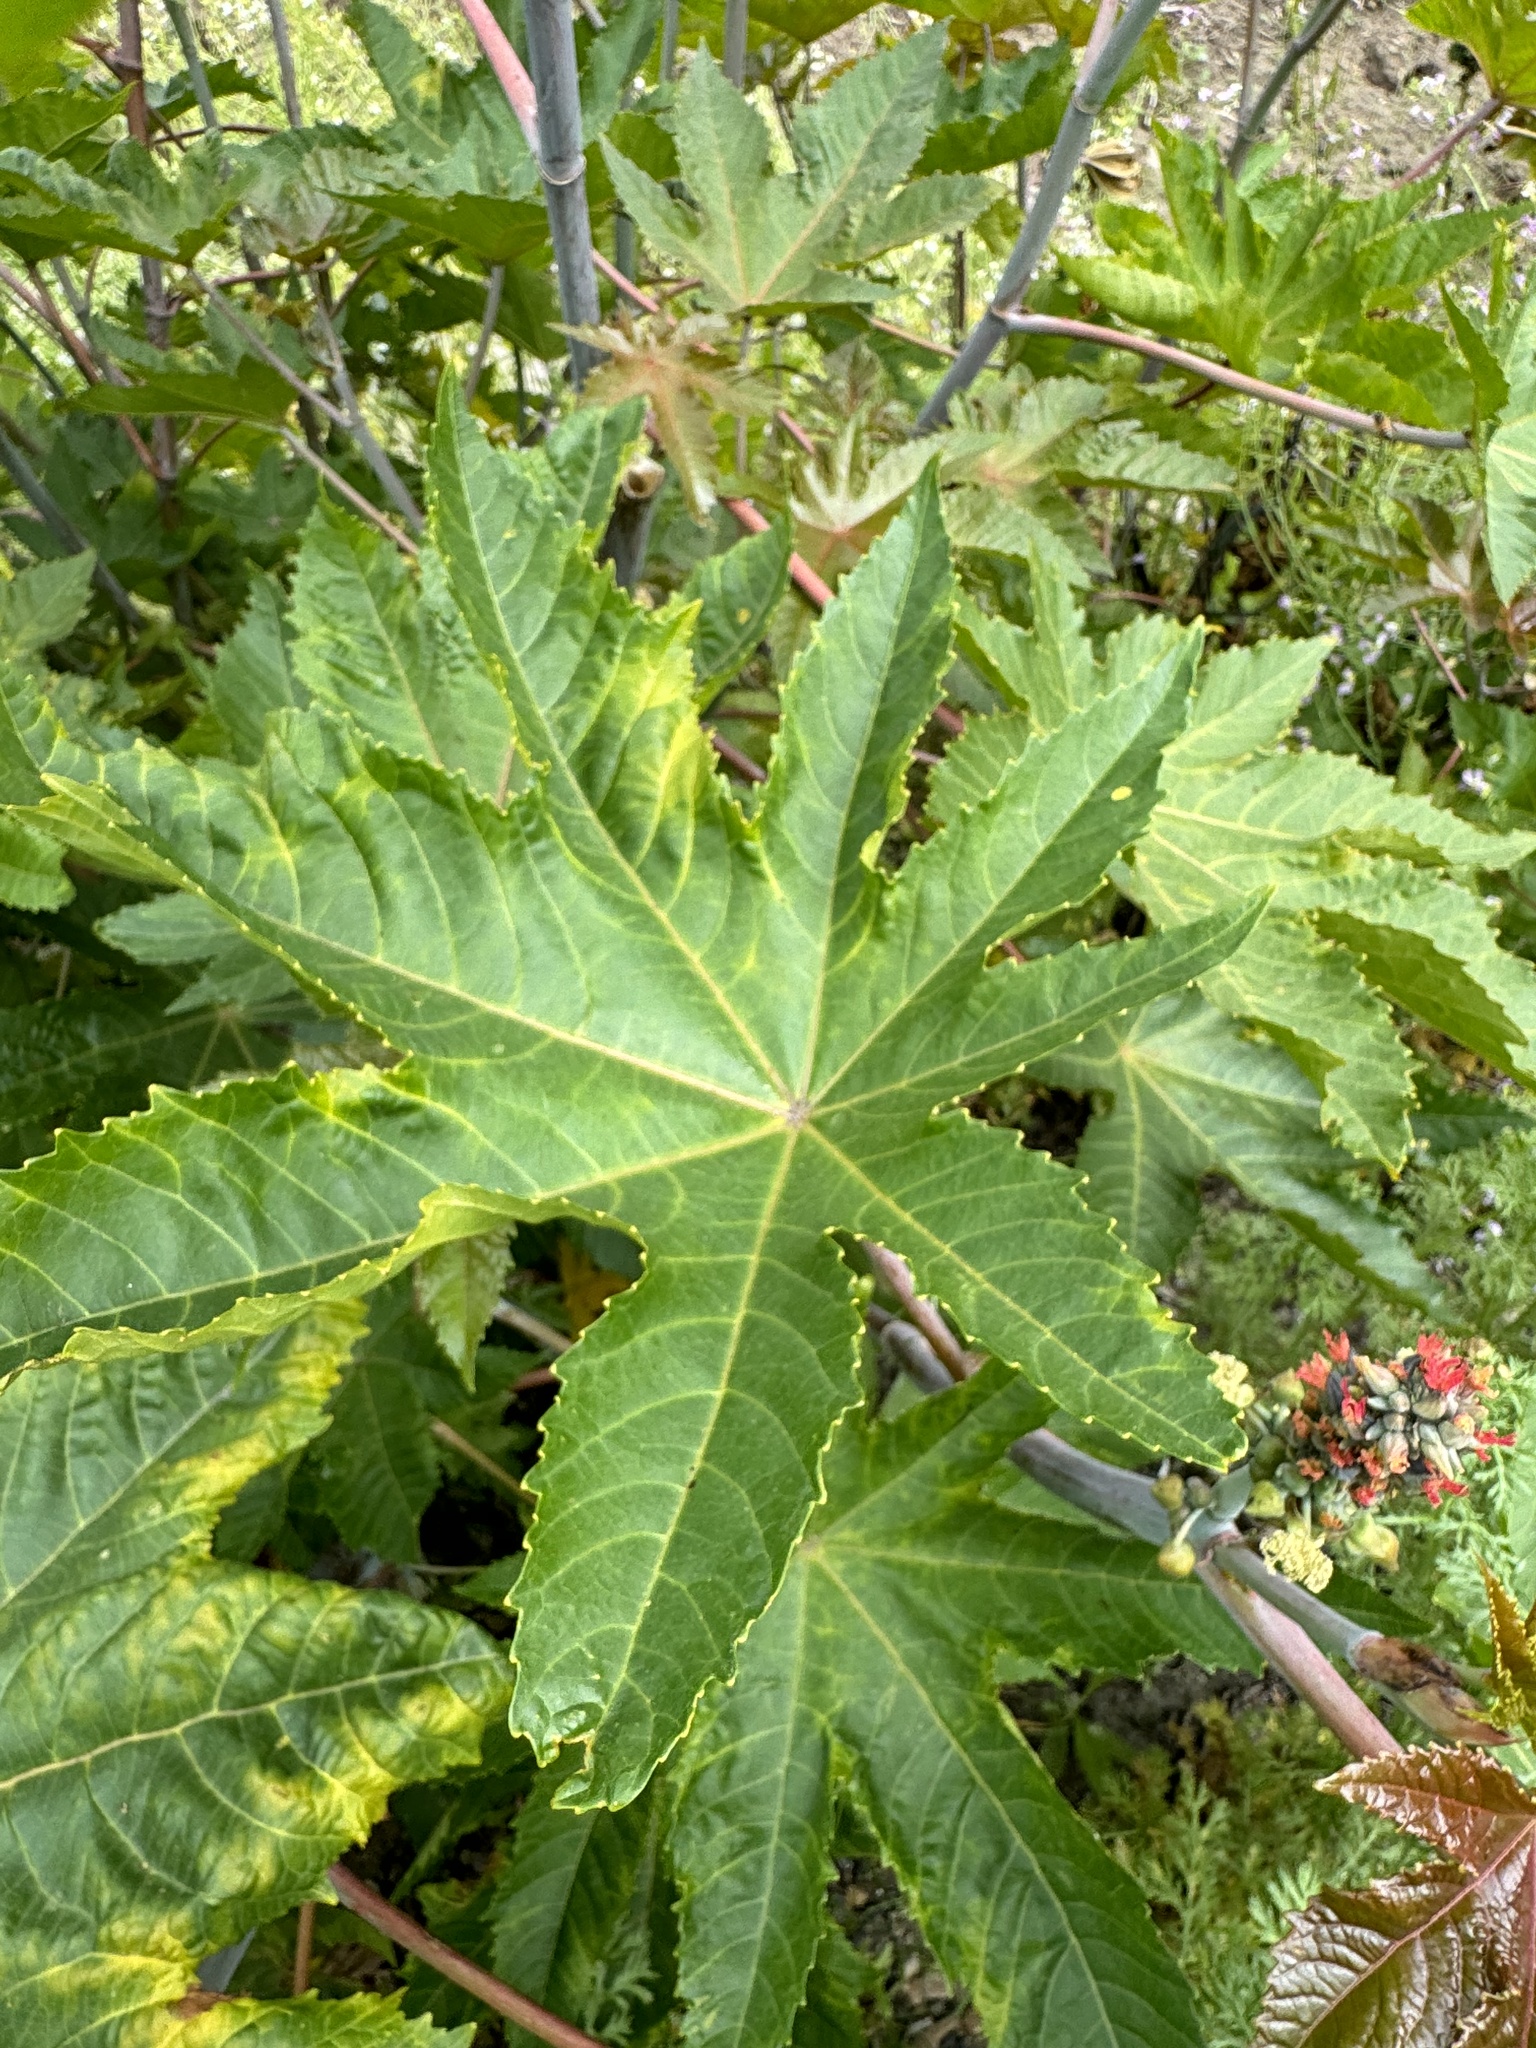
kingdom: Plantae
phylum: Tracheophyta
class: Magnoliopsida
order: Malpighiales
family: Euphorbiaceae
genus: Ricinus
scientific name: Ricinus communis
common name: Castor-oil-plant
